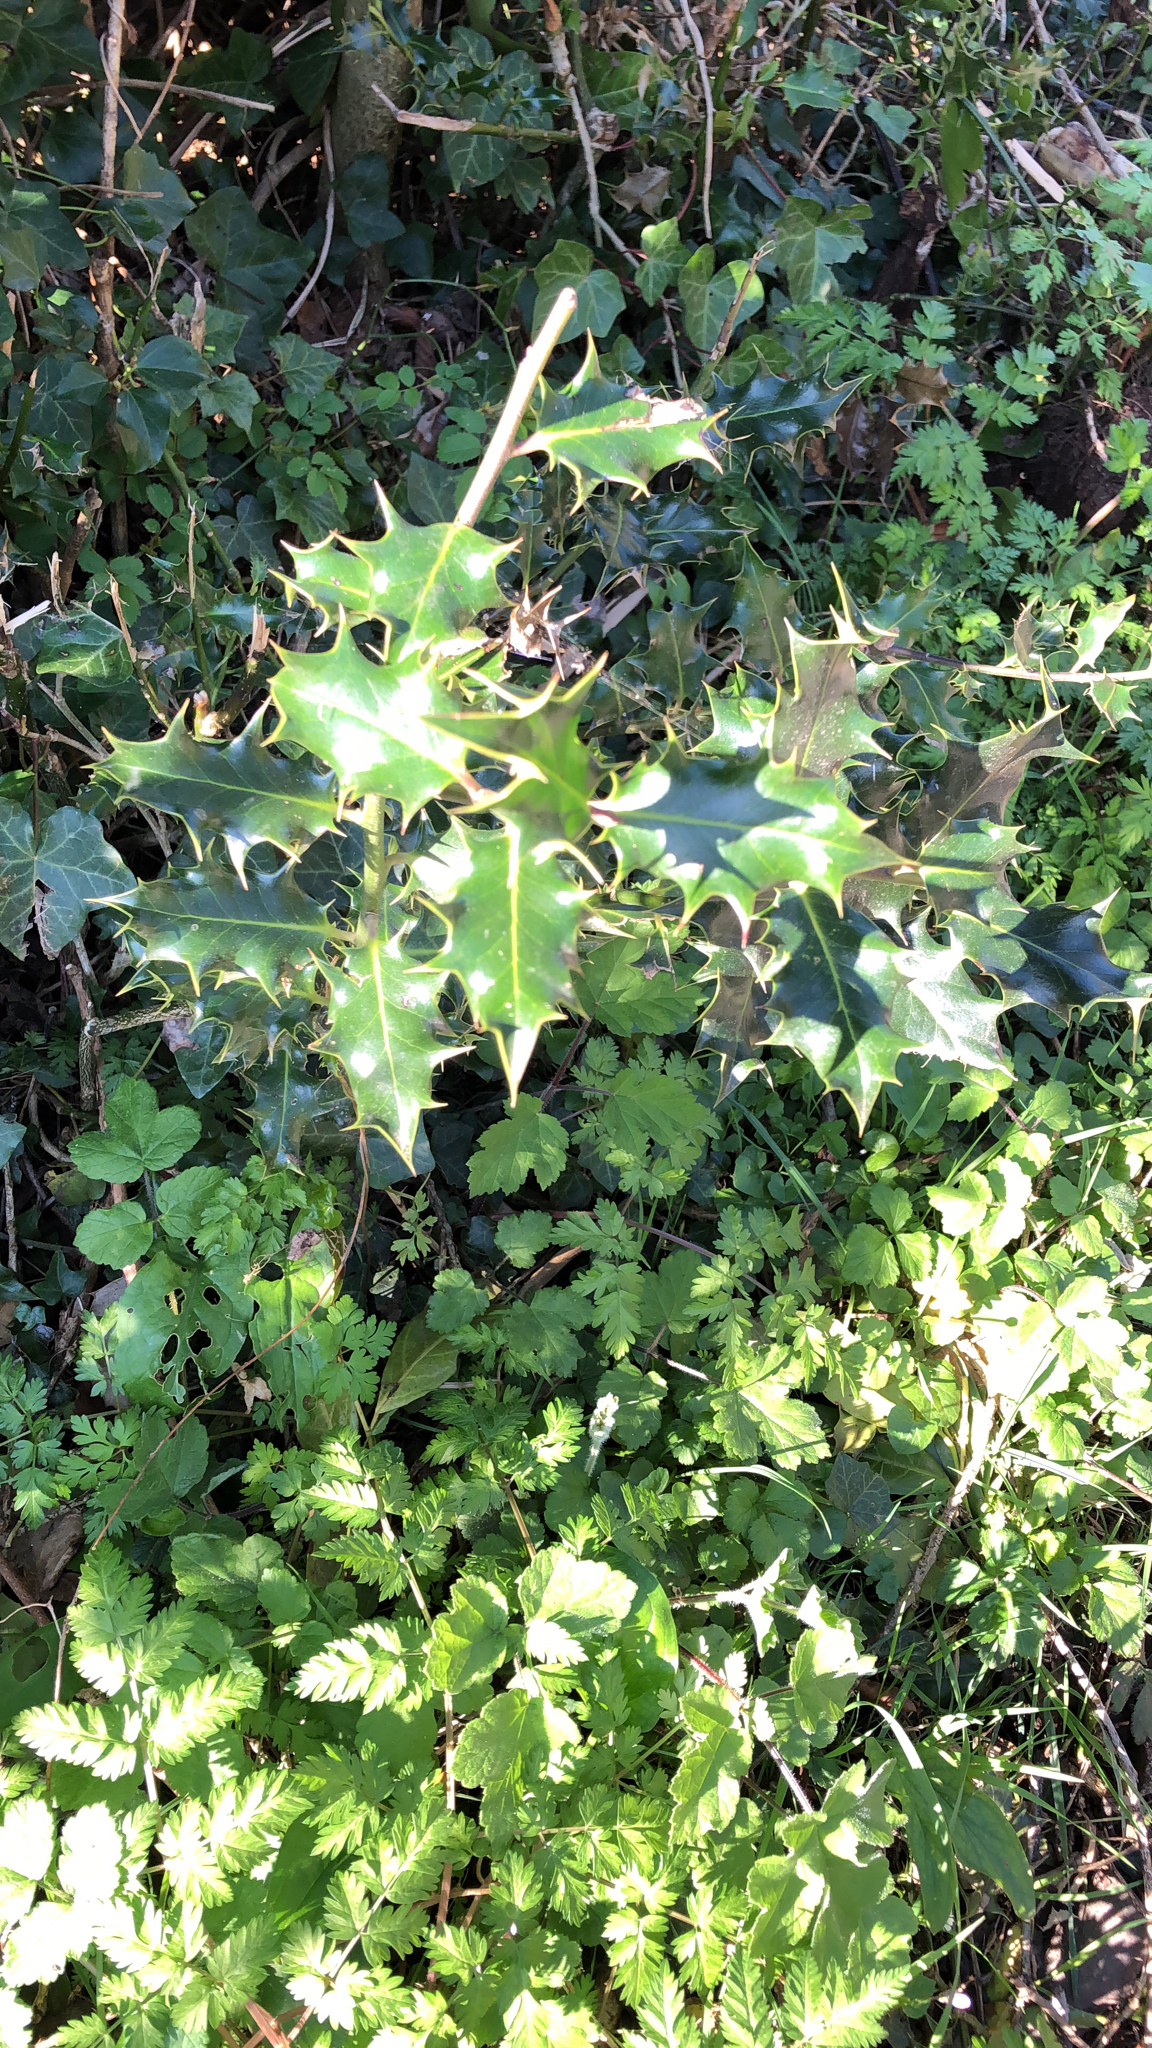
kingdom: Plantae
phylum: Tracheophyta
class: Magnoliopsida
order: Aquifoliales
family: Aquifoliaceae
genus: Ilex
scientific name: Ilex aquifolium
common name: English holly
